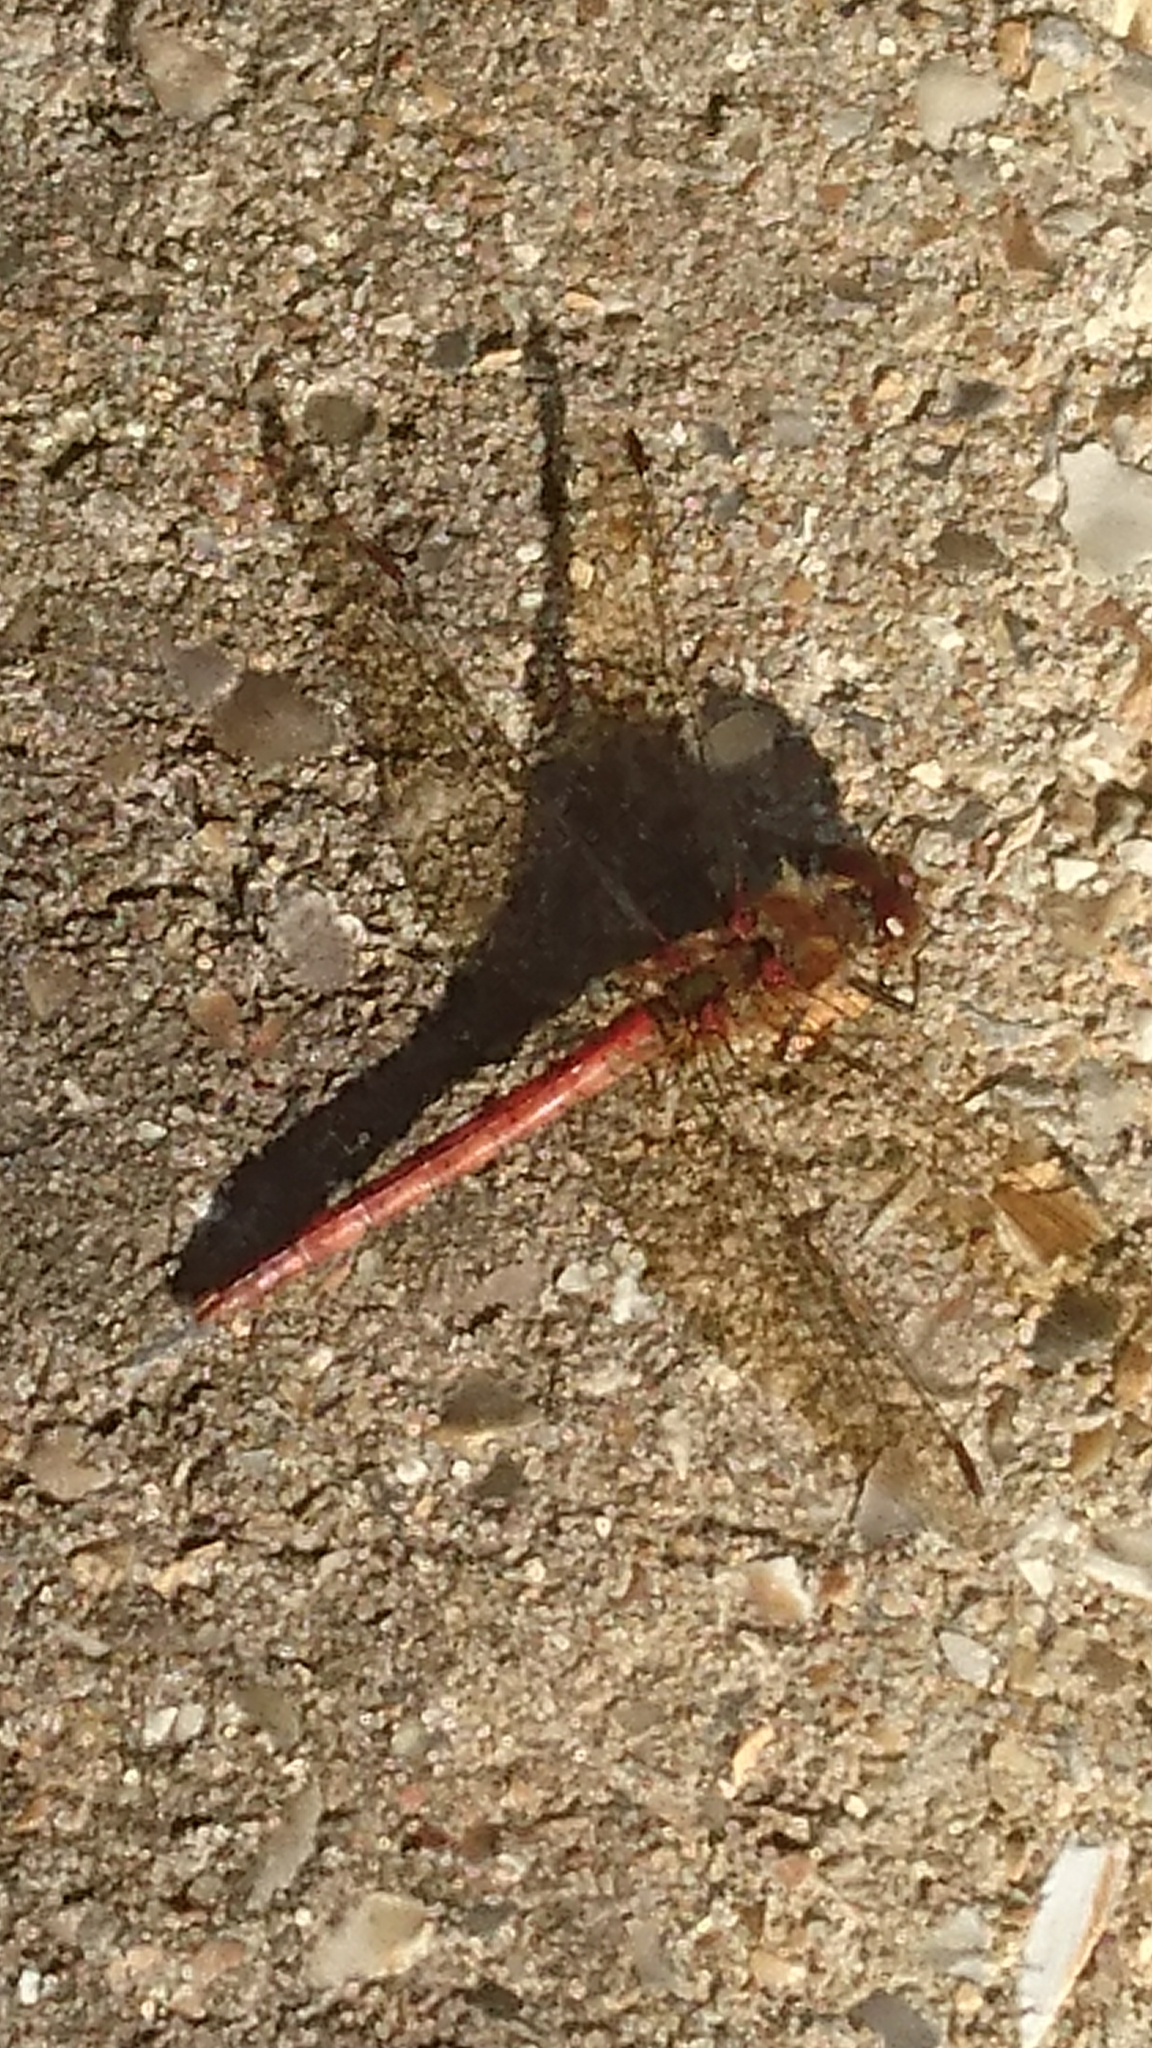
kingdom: Animalia
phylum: Arthropoda
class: Insecta
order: Odonata
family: Libellulidae
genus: Sympetrum
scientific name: Sympetrum striolatum
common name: Common darter
